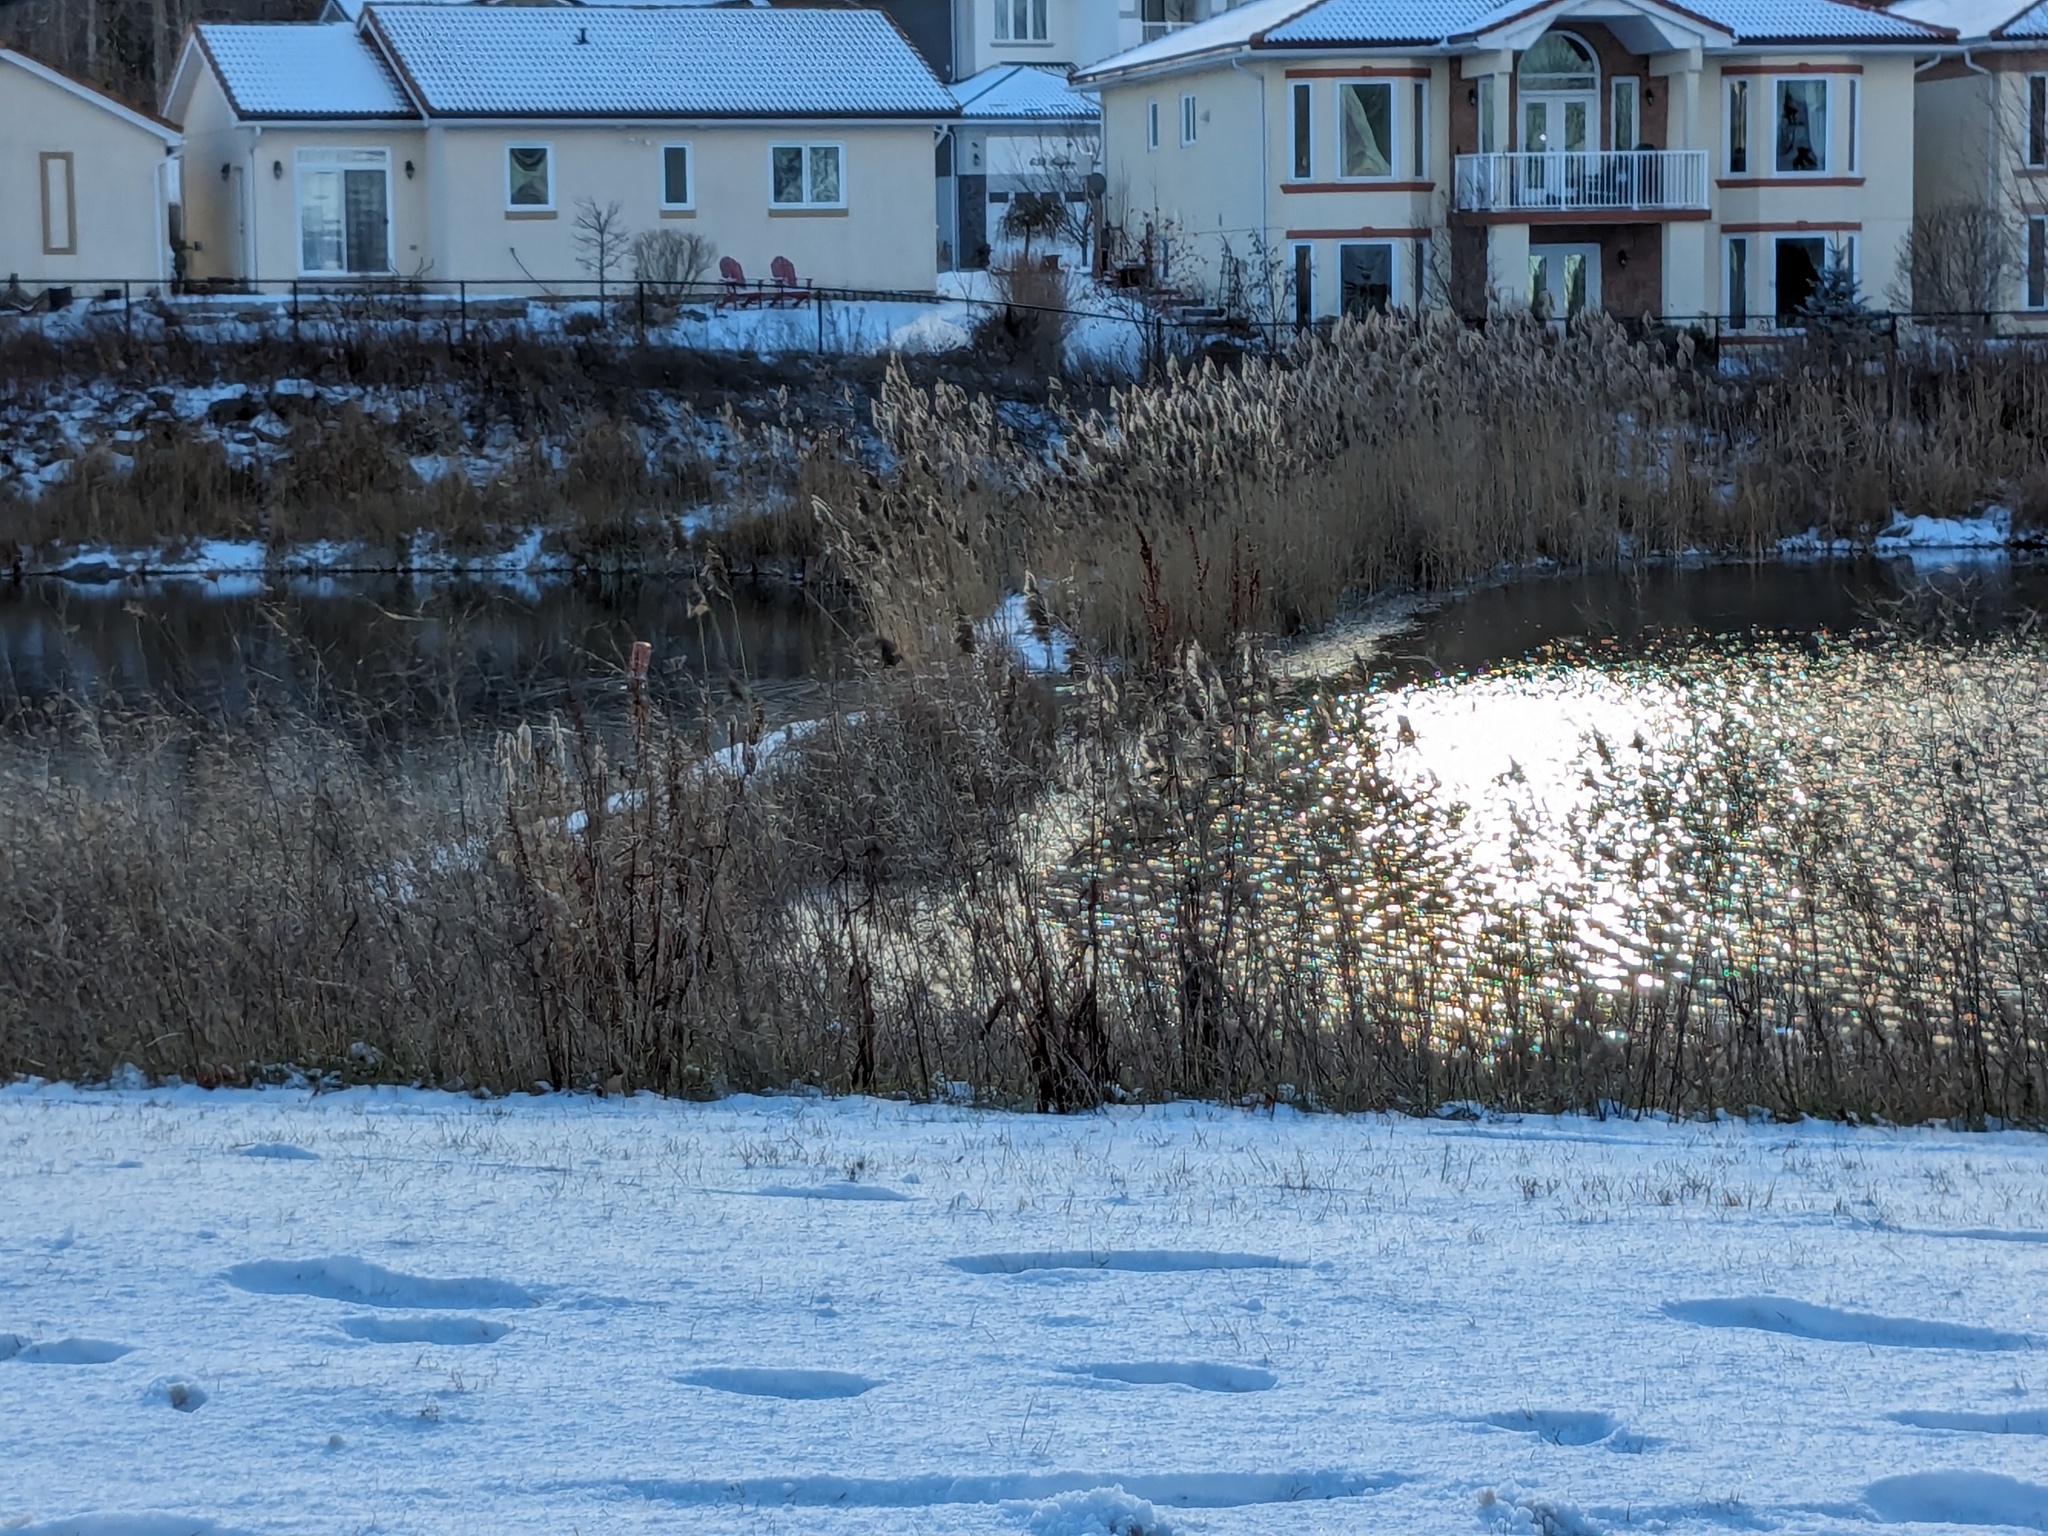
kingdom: Plantae
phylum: Tracheophyta
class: Liliopsida
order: Poales
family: Poaceae
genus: Phragmites
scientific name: Phragmites australis
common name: Common reed
